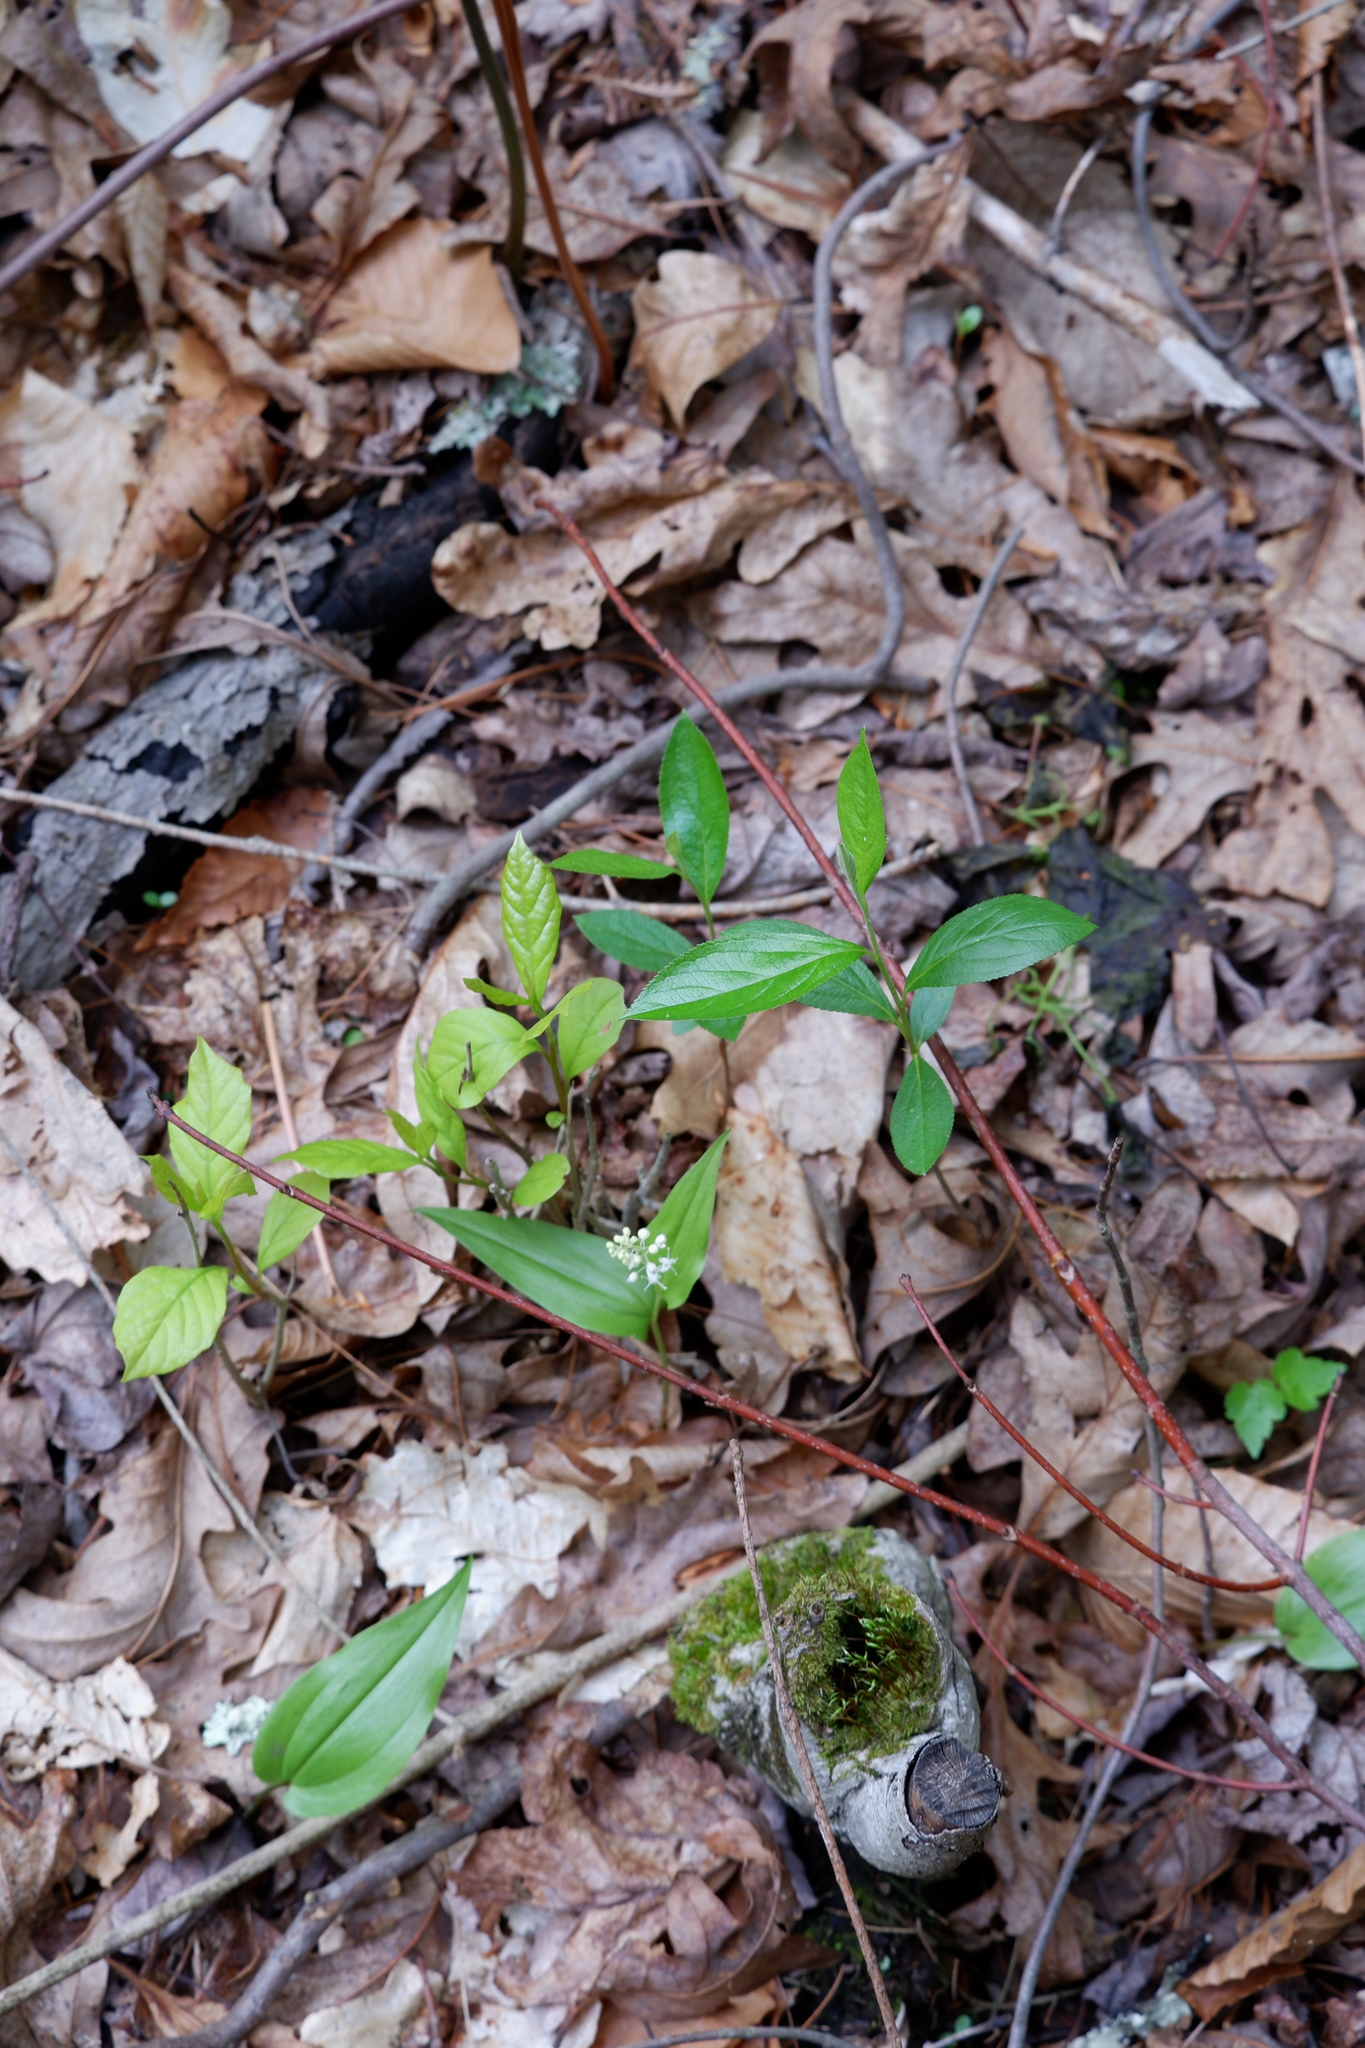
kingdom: Plantae
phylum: Tracheophyta
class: Liliopsida
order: Asparagales
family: Asparagaceae
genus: Maianthemum
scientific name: Maianthemum canadense
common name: False lily-of-the-valley
